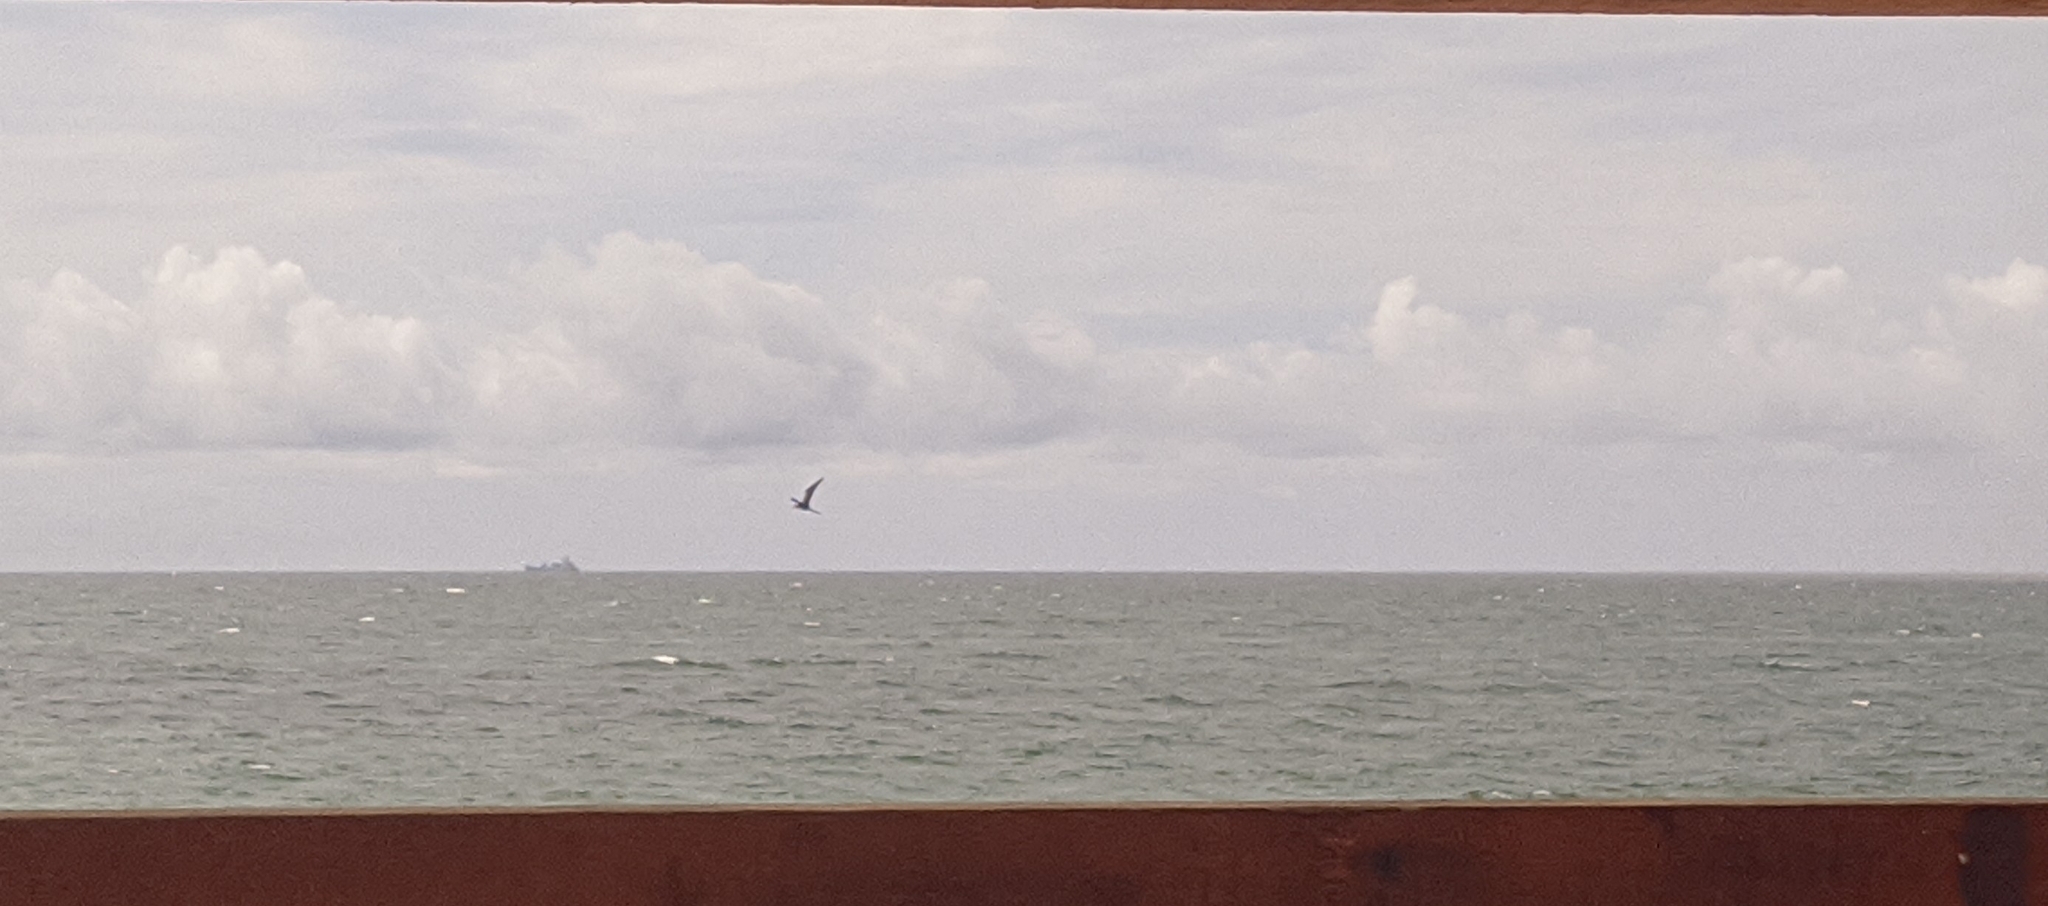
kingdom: Animalia
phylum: Chordata
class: Aves
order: Suliformes
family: Fregatidae
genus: Fregata
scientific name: Fregata magnificens
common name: Magnificent frigatebird
